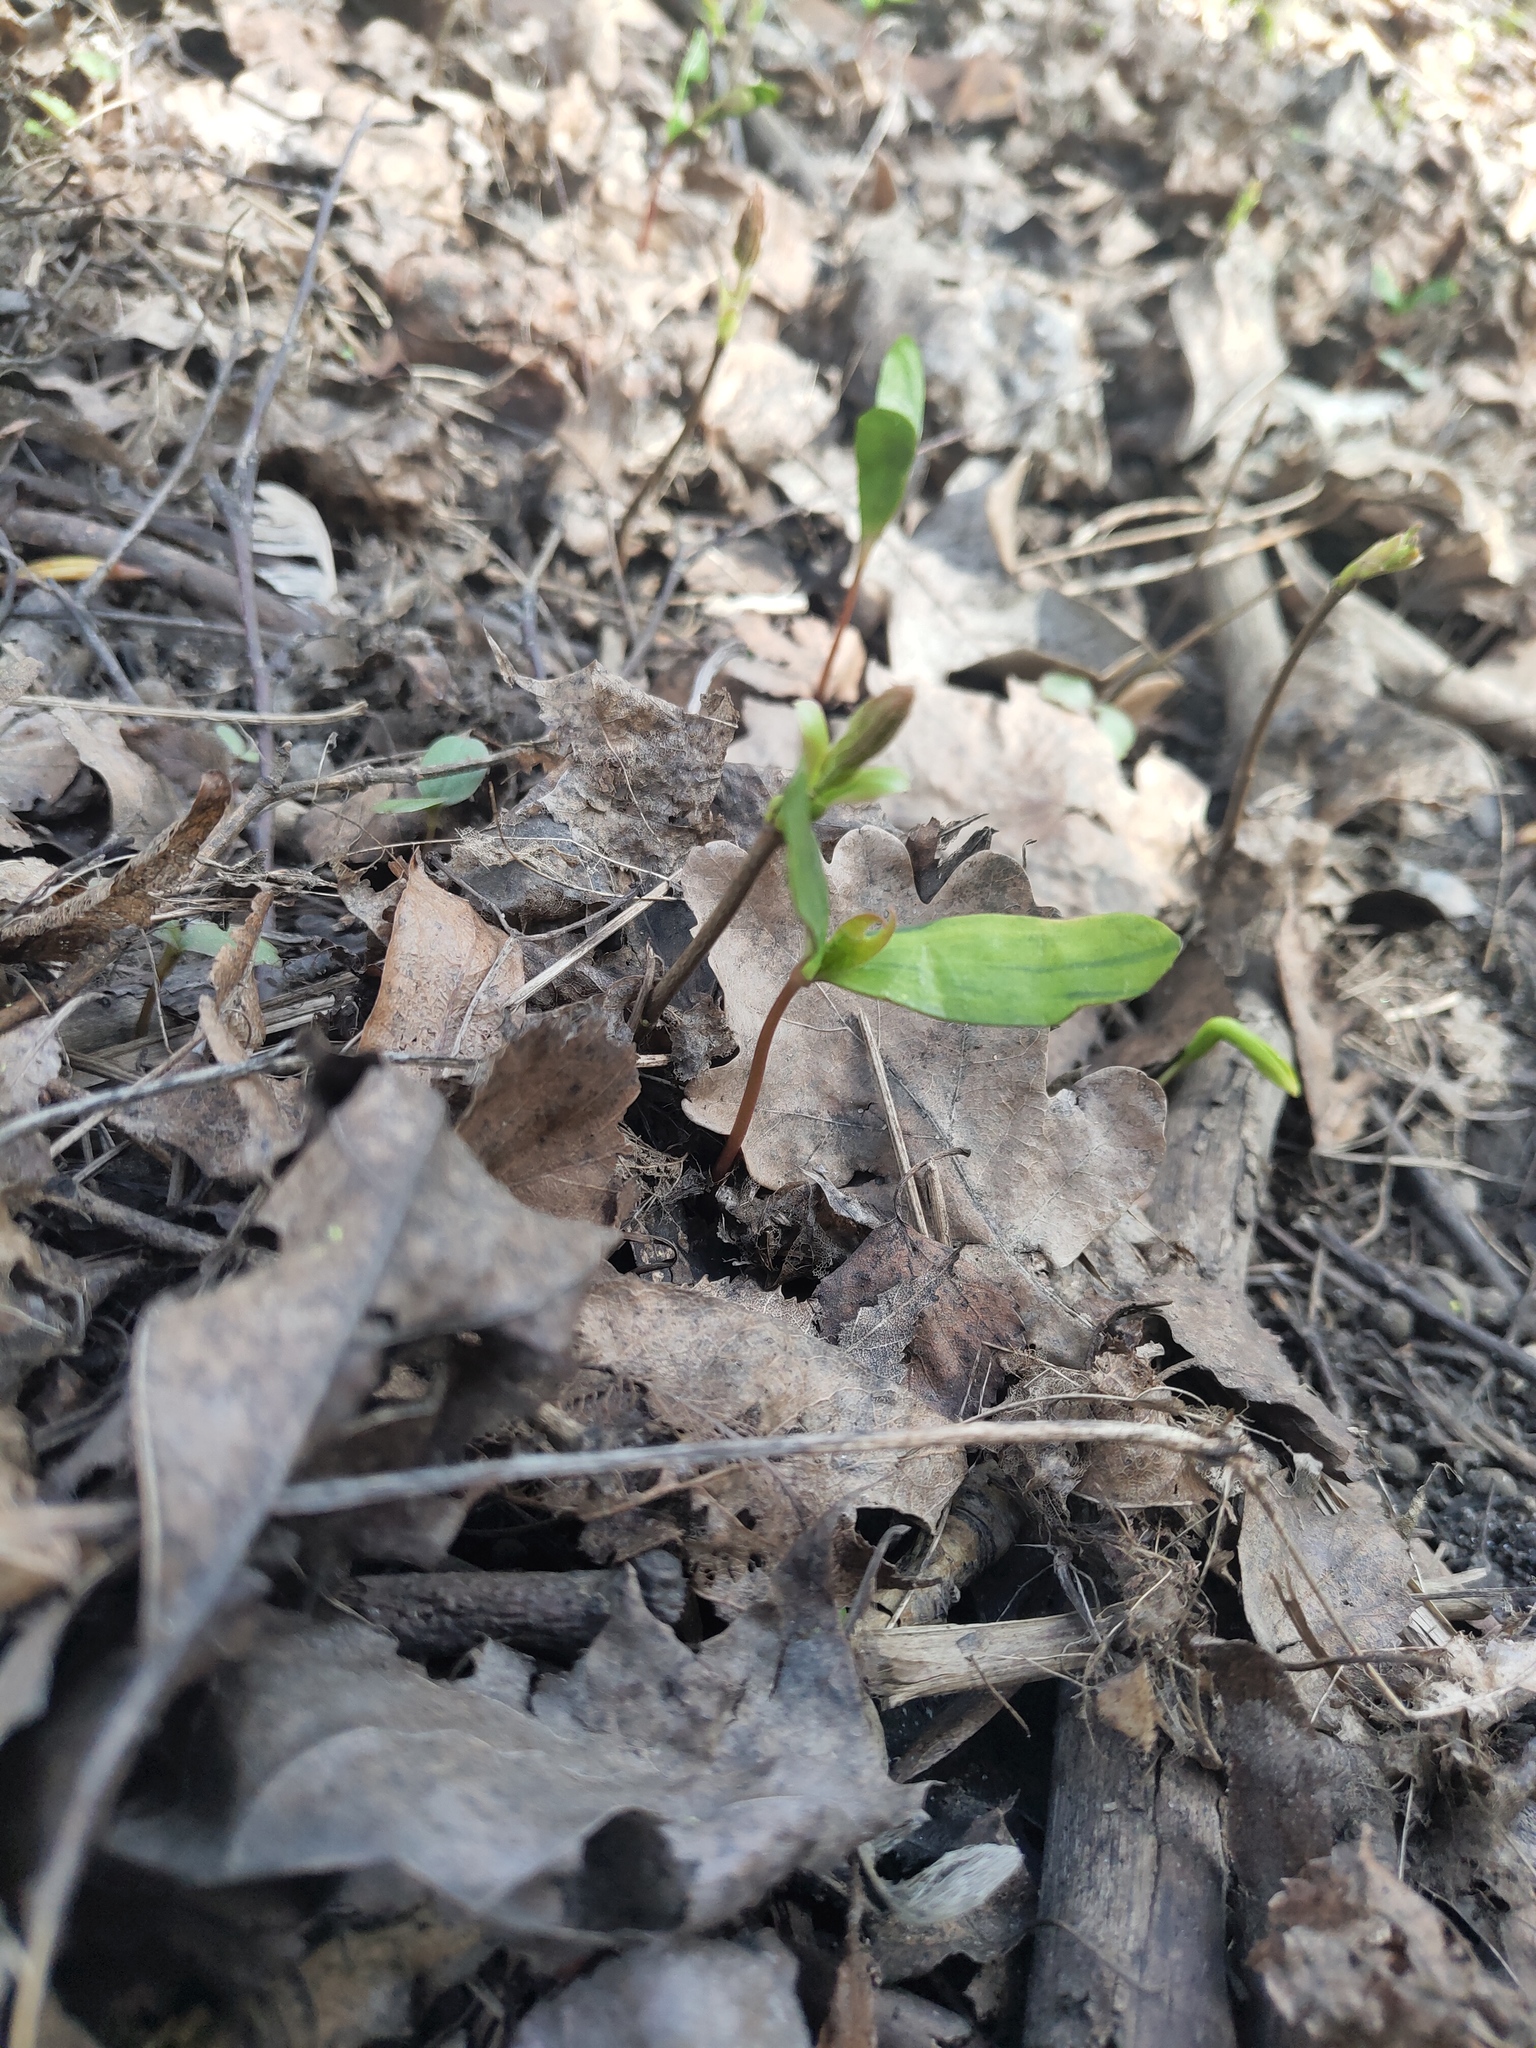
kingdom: Plantae
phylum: Tracheophyta
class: Magnoliopsida
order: Sapindales
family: Sapindaceae
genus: Acer
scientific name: Acer platanoides
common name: Norway maple
